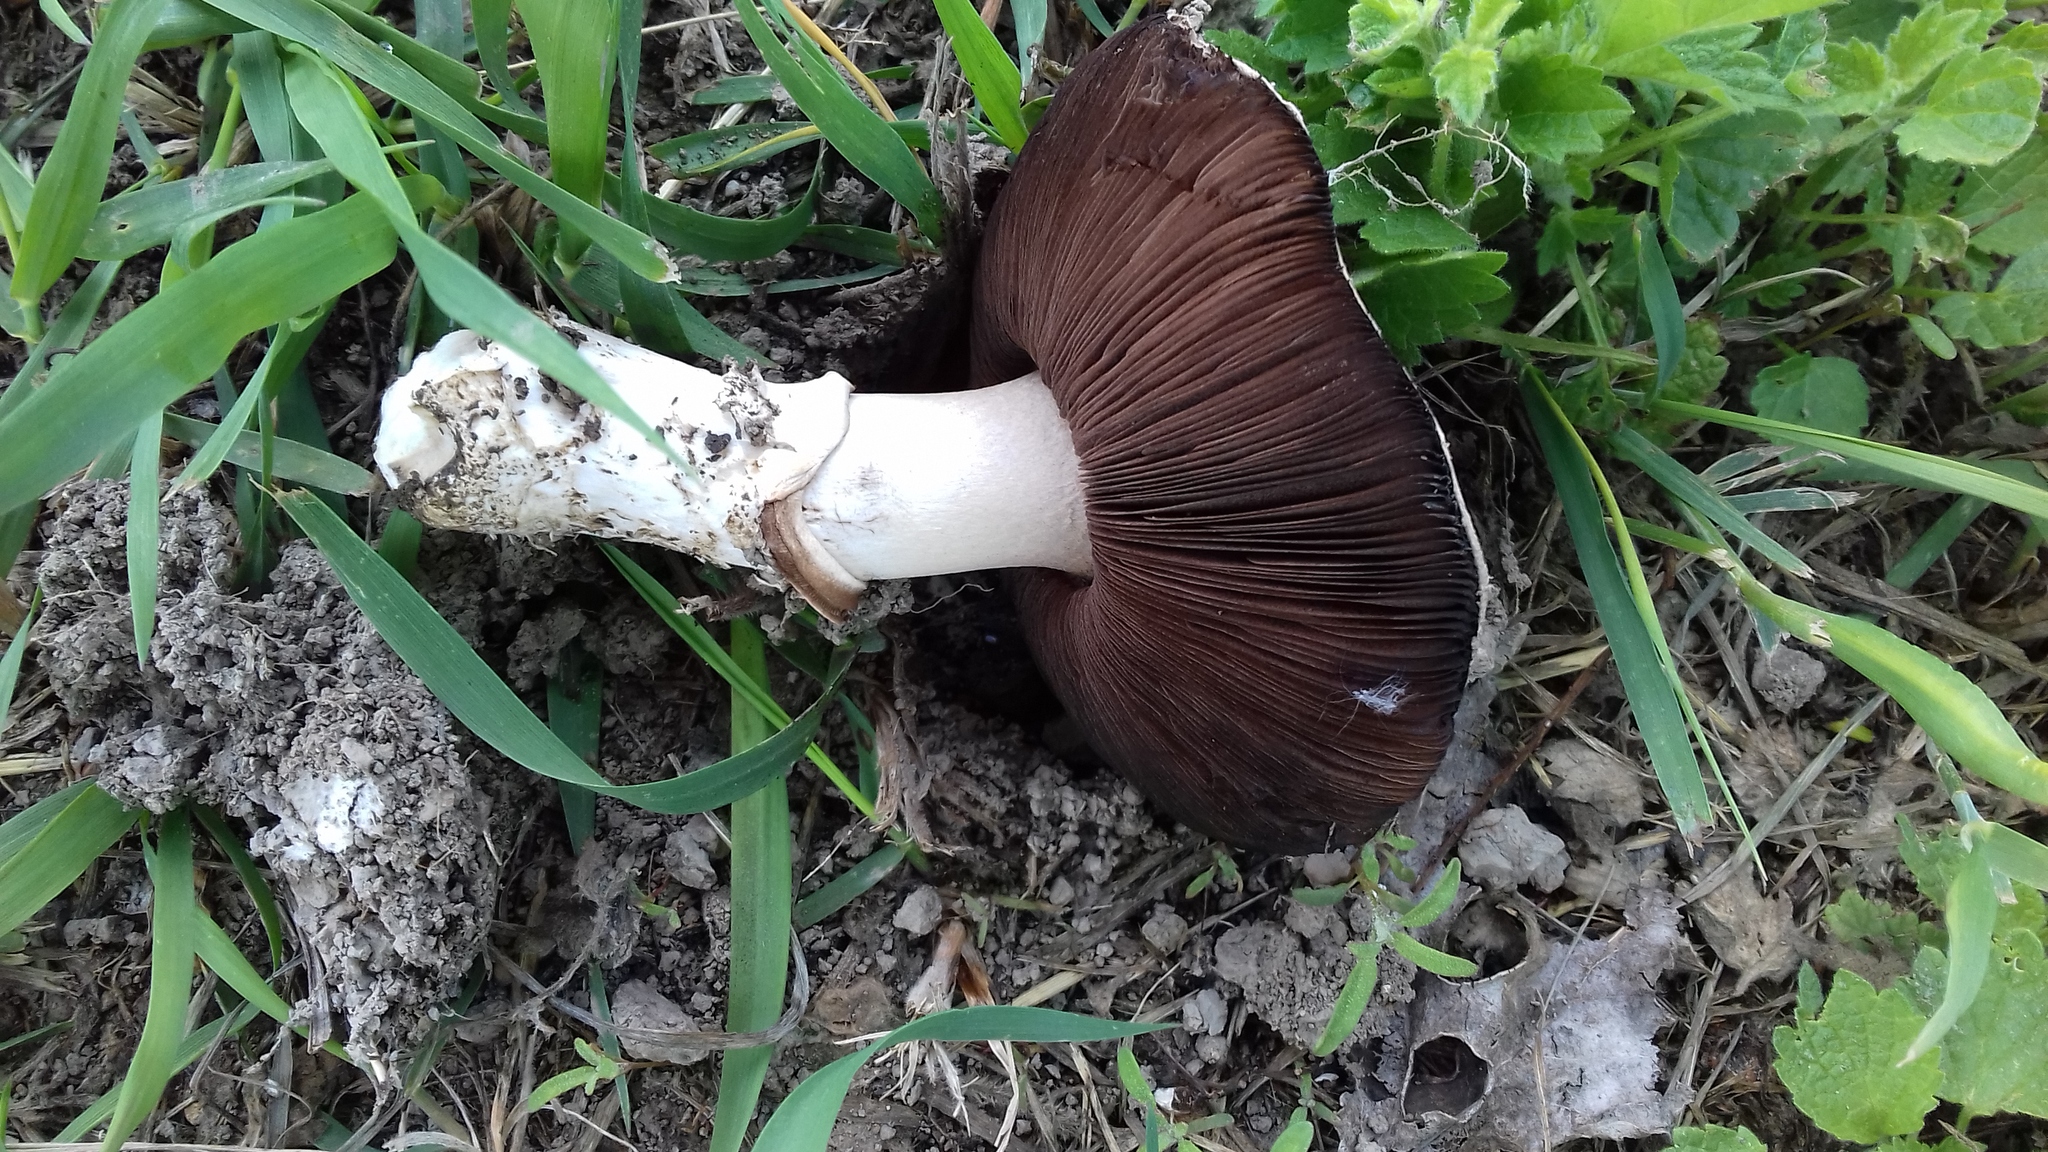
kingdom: Fungi
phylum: Basidiomycota
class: Agaricomycetes
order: Agaricales
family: Agaricaceae
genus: Agaricus
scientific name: Agaricus bitorquis
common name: Pavement mushroom
